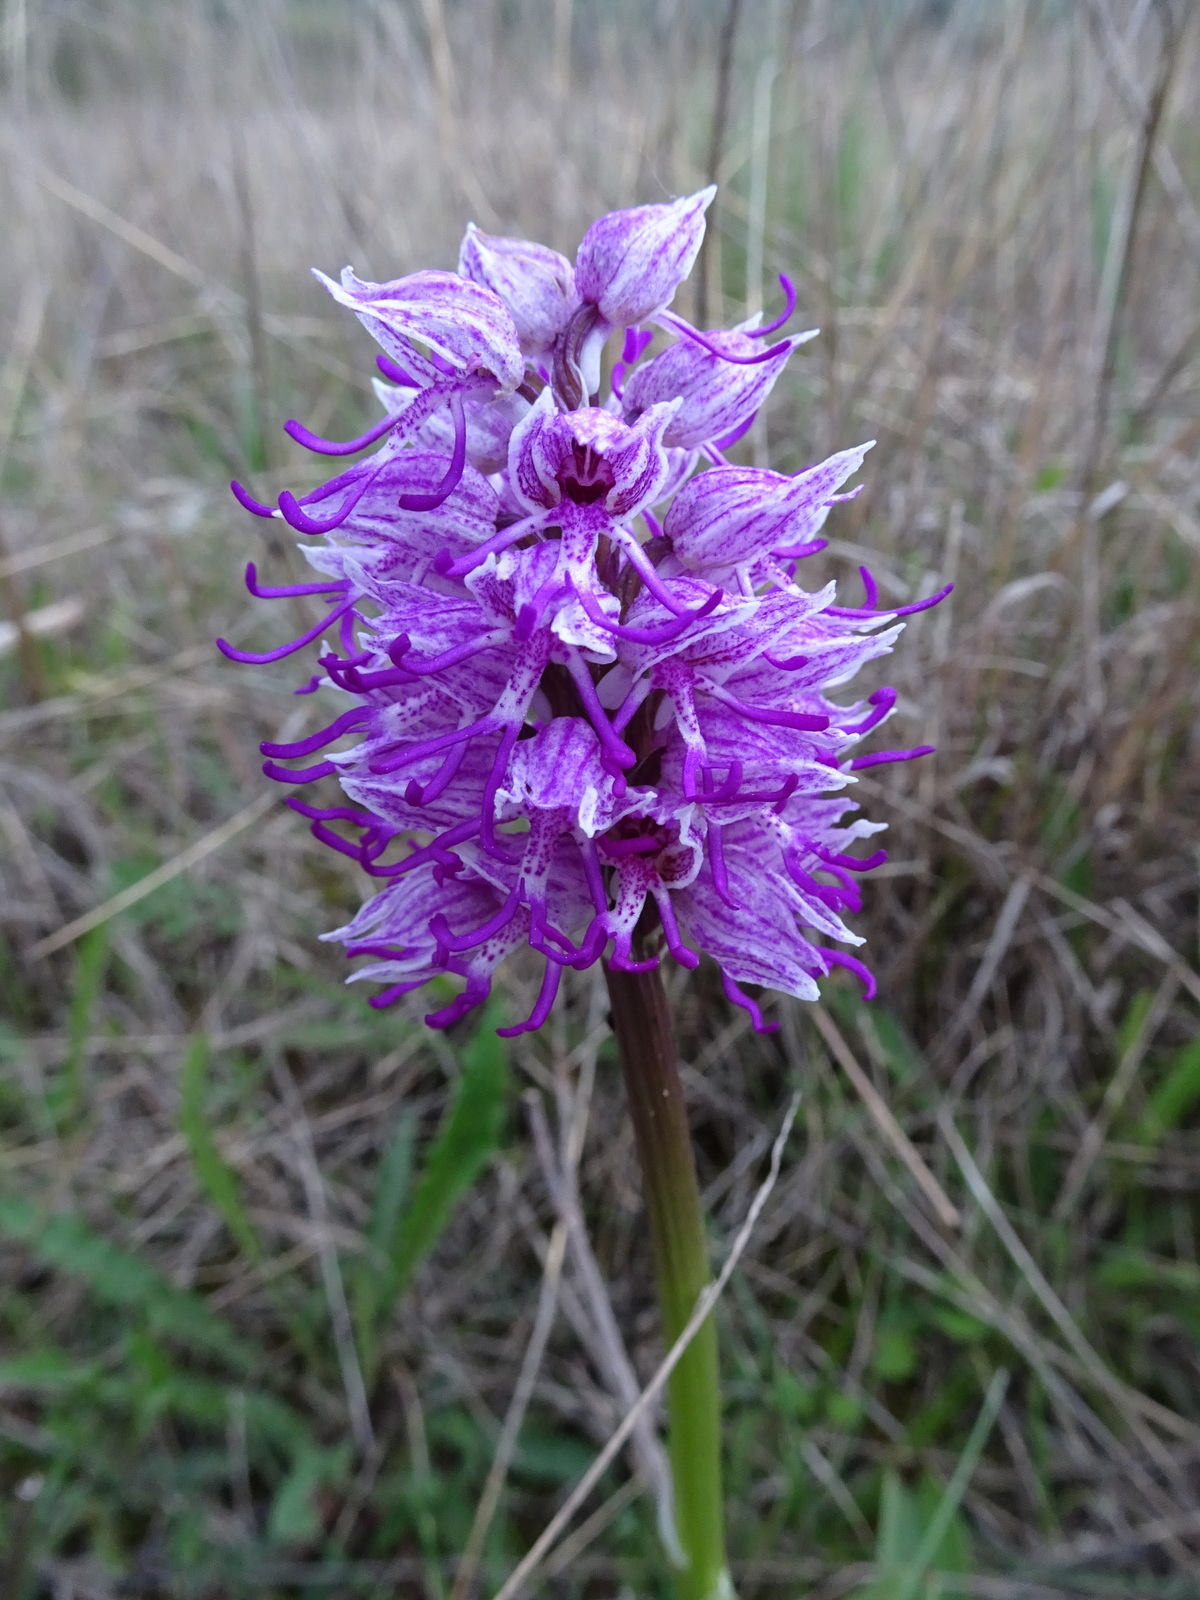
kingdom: Plantae
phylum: Tracheophyta
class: Liliopsida
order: Asparagales
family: Orchidaceae
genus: Orchis
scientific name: Orchis simia
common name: Monkey orchid
